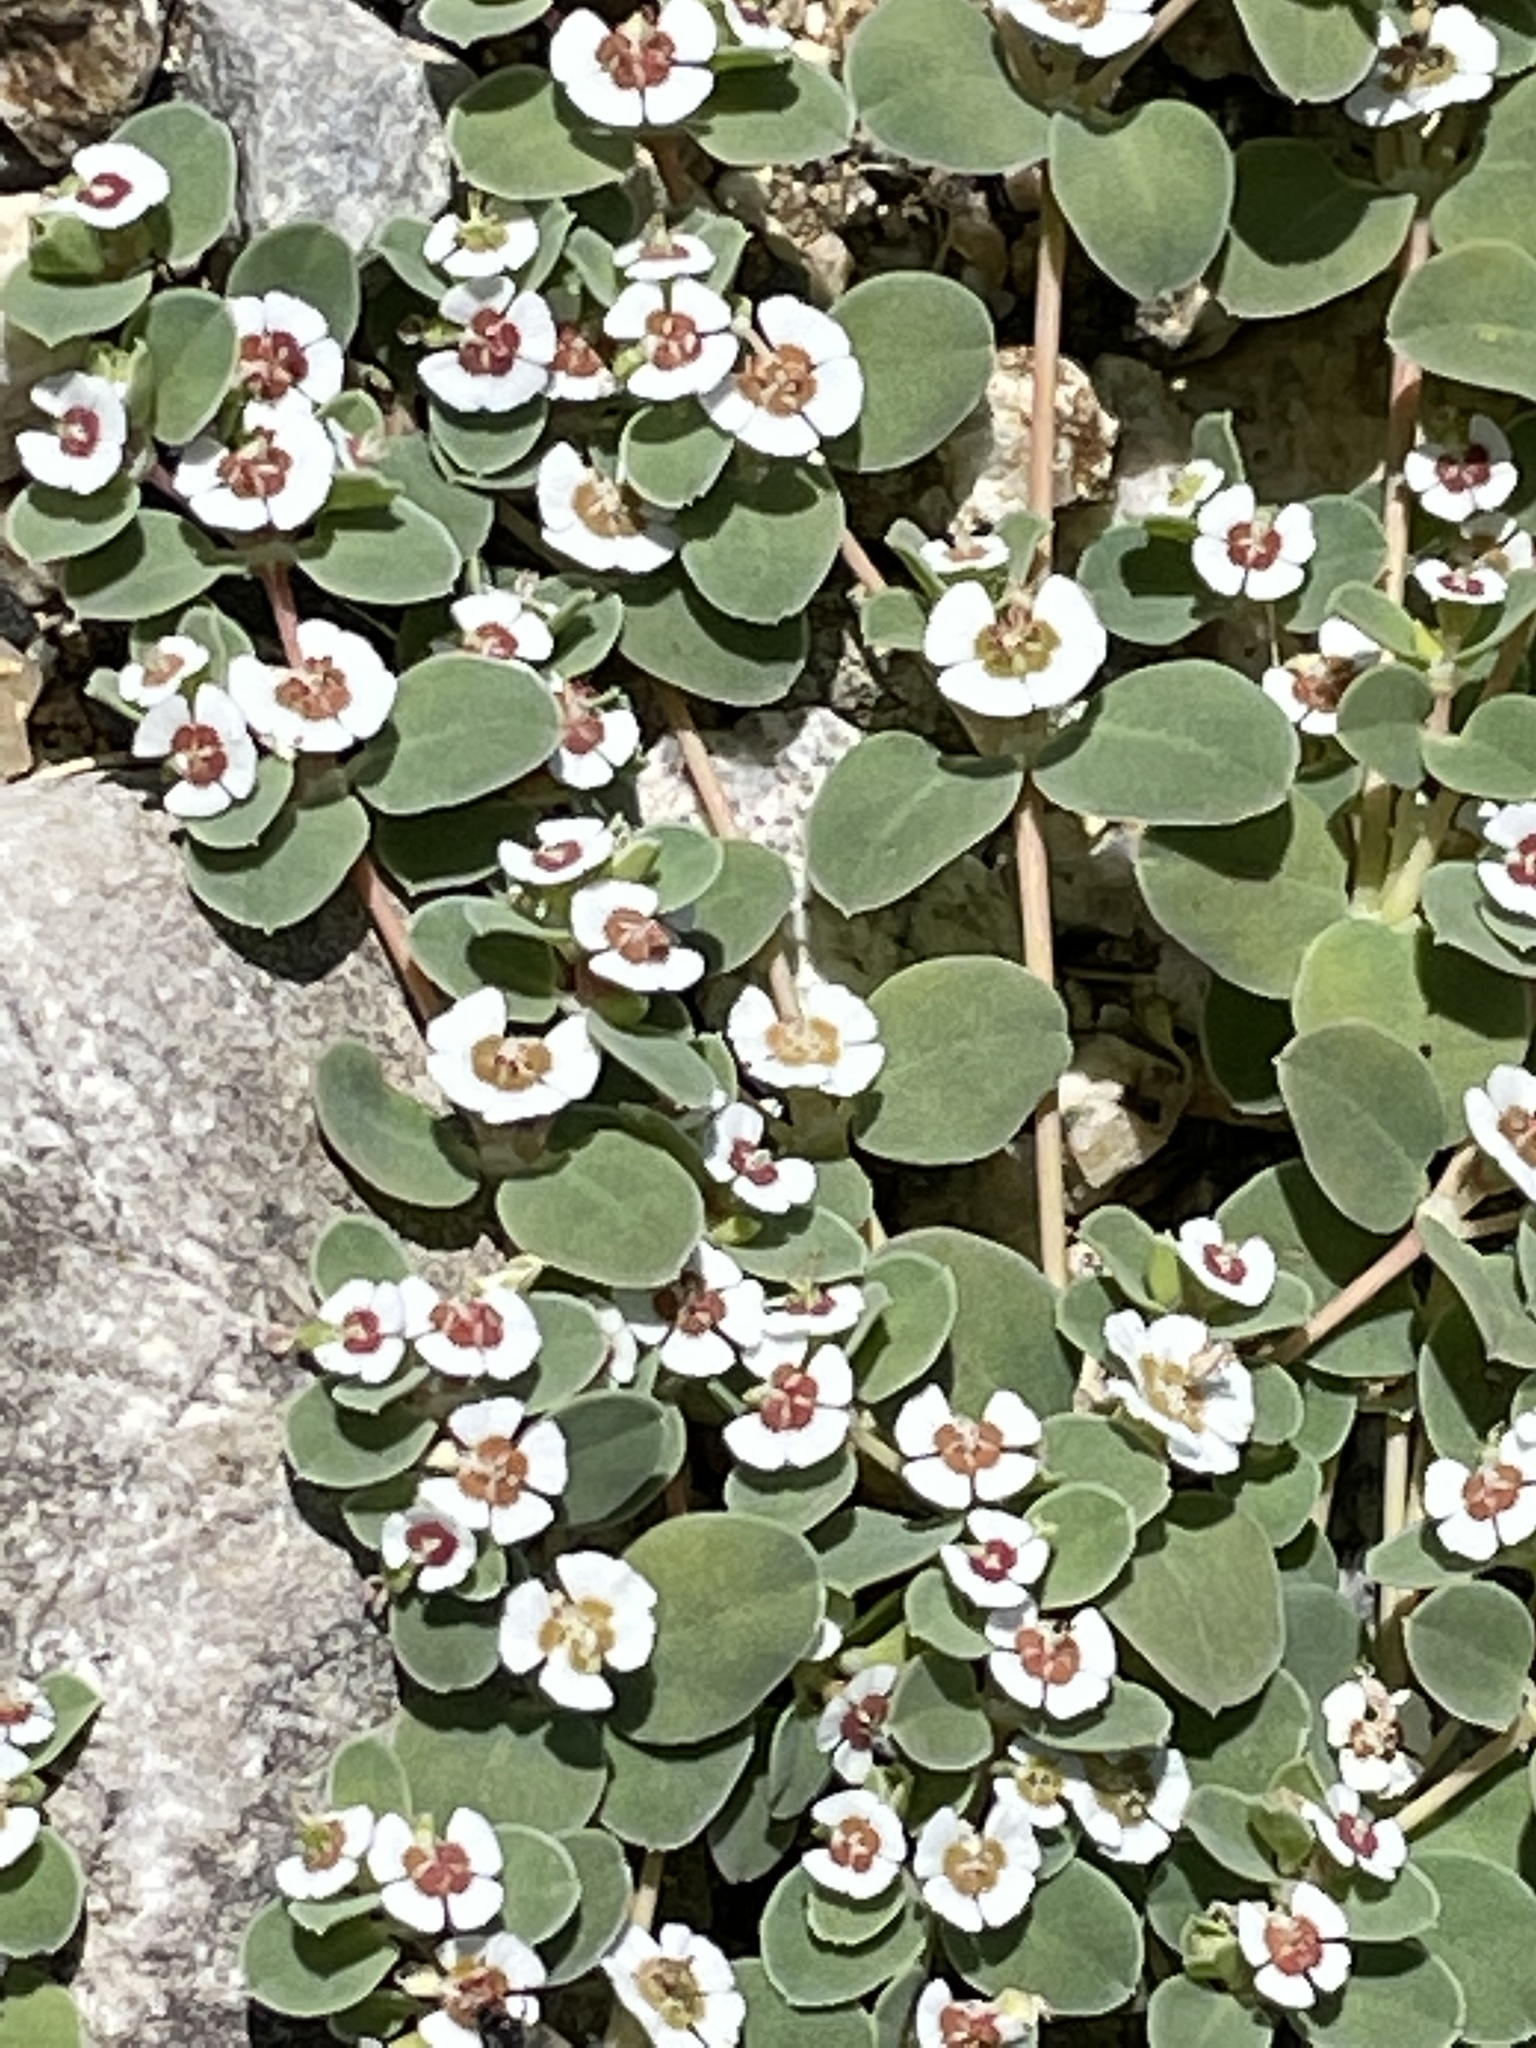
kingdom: Plantae
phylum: Tracheophyta
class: Magnoliopsida
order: Malpighiales
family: Euphorbiaceae
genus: Euphorbia
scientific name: Euphorbia albomarginata
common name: Whitemargin sandmat
